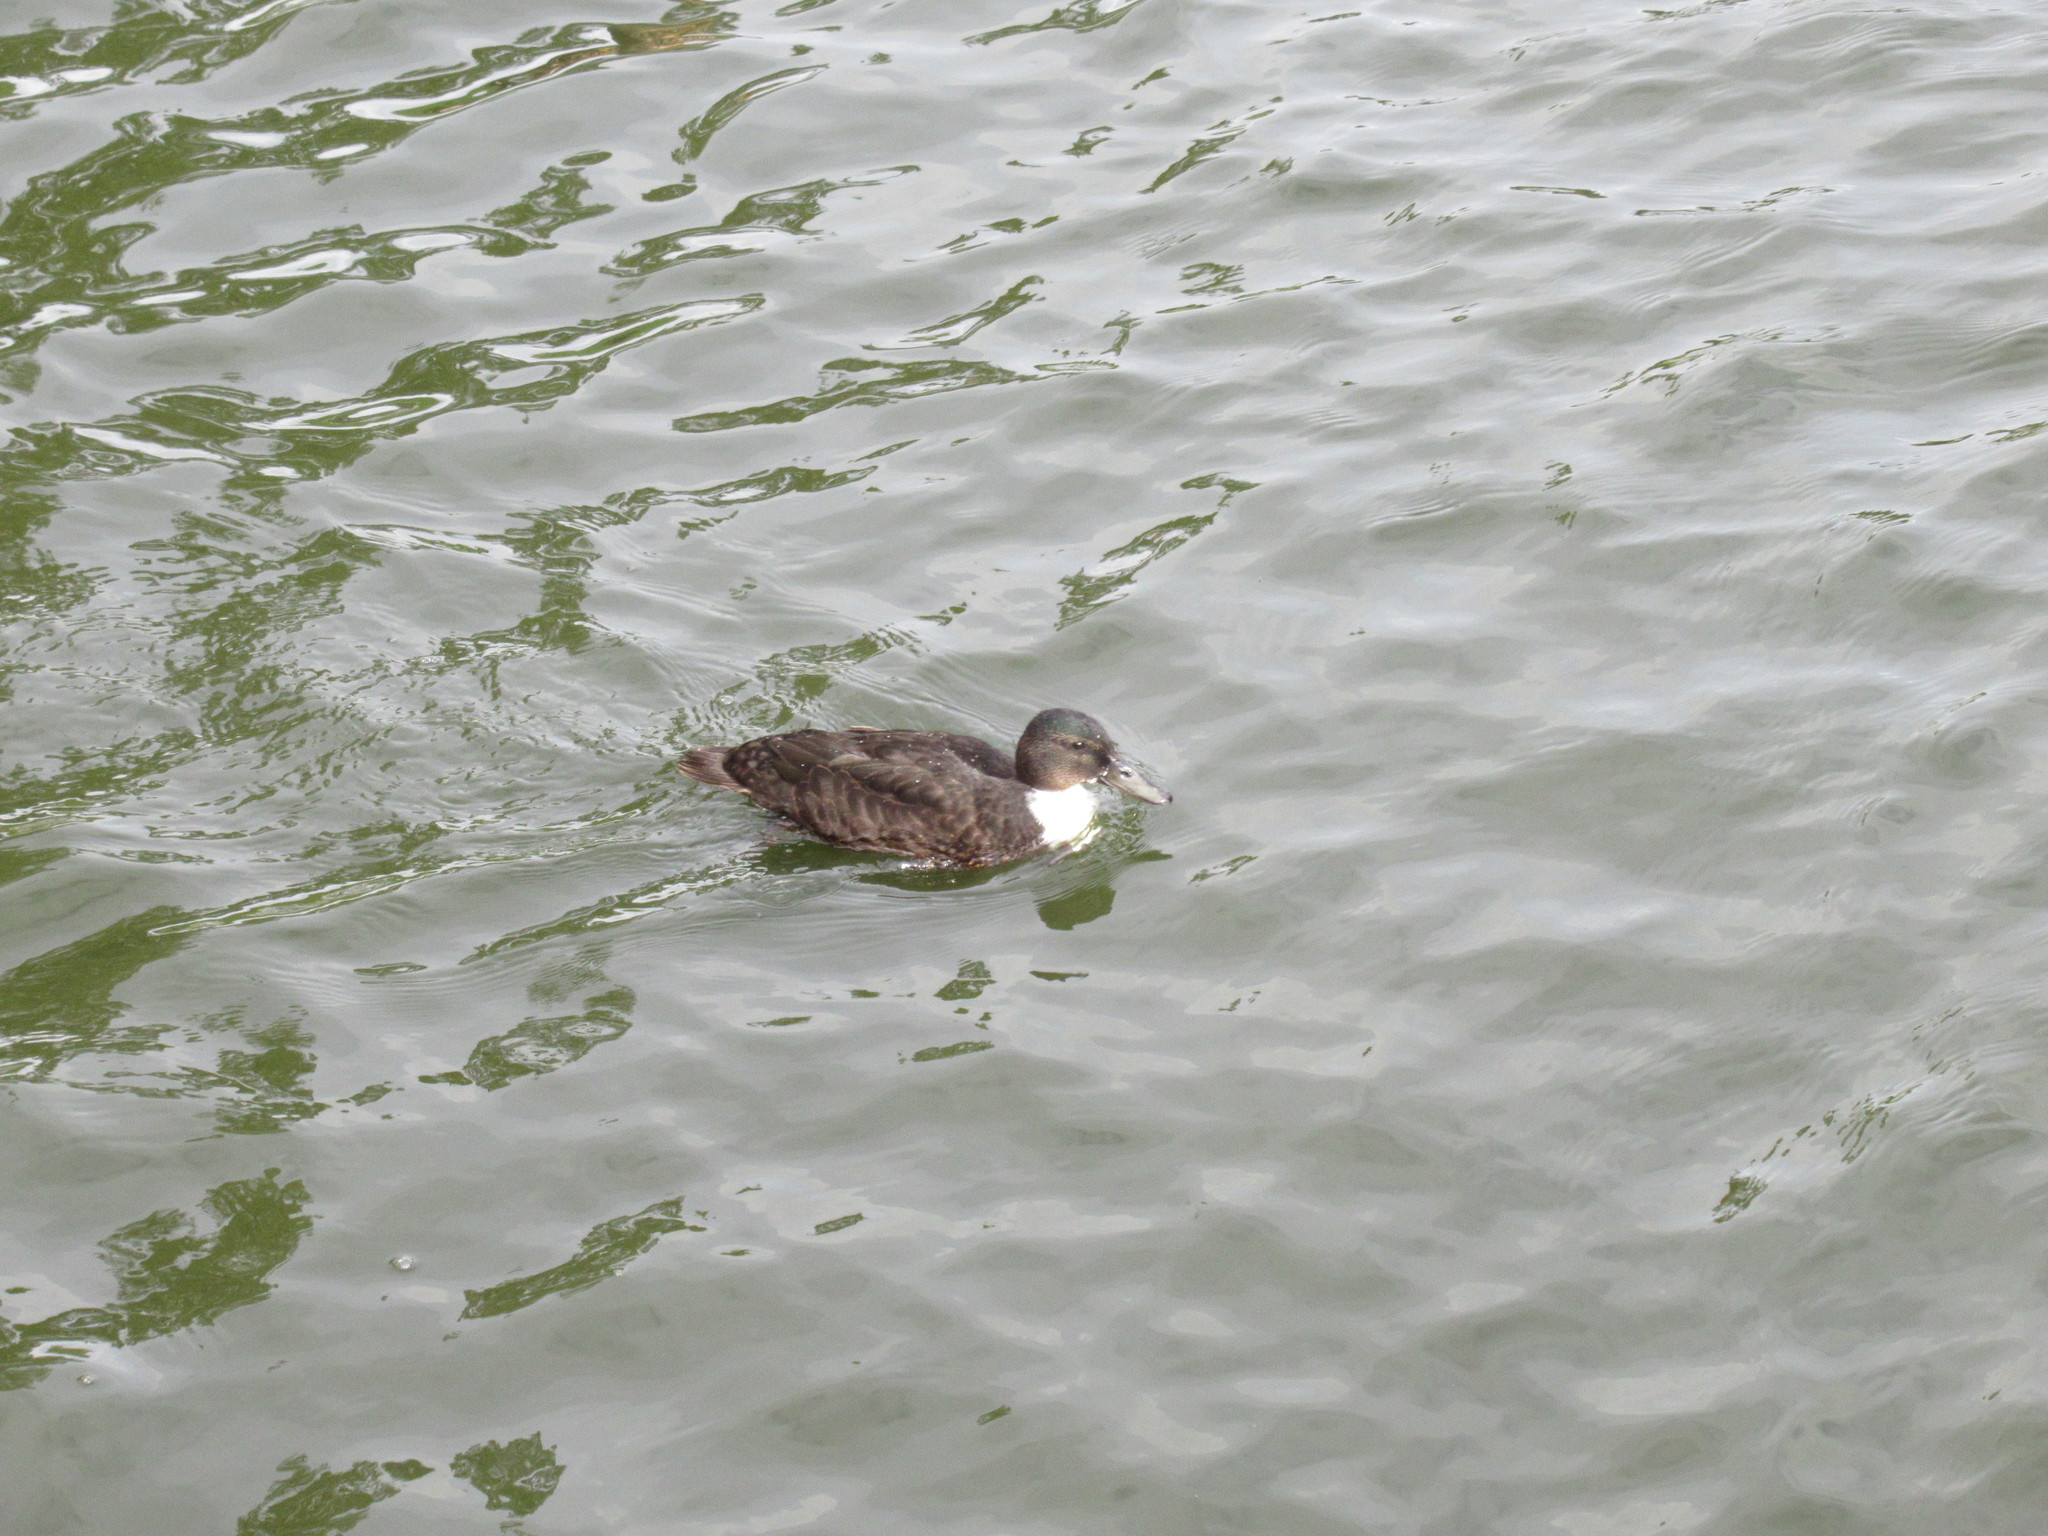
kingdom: Animalia
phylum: Chordata
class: Aves
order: Anseriformes
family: Anatidae
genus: Anas
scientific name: Anas platyrhynchos
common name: Mallard
